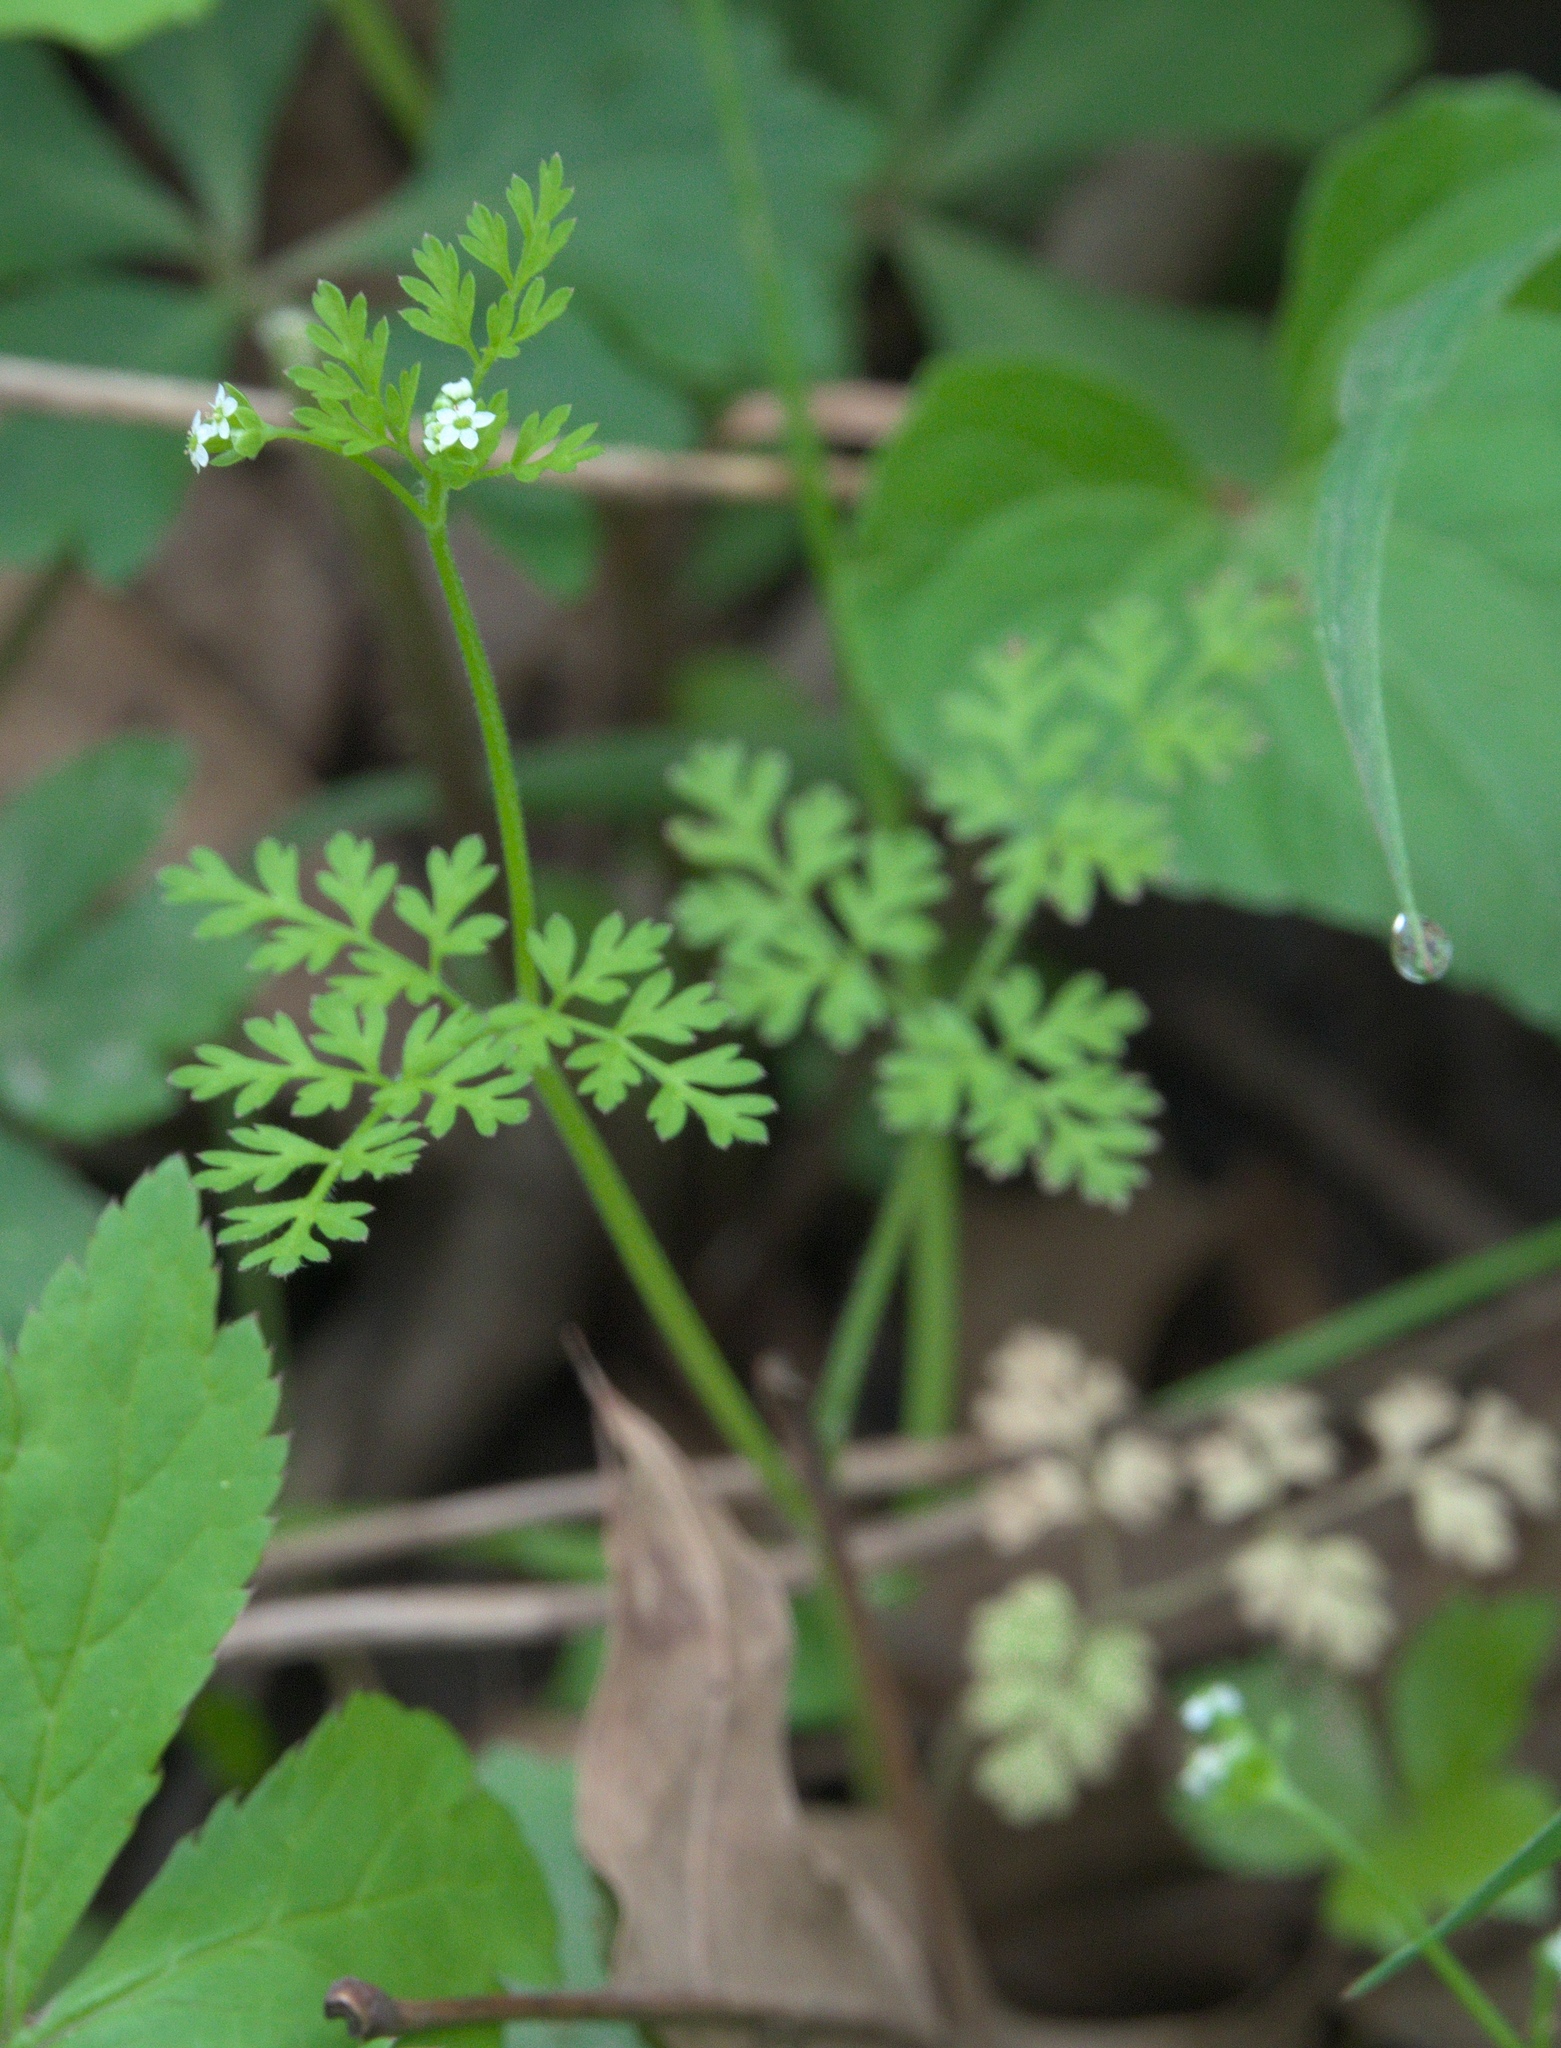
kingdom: Plantae
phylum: Tracheophyta
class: Magnoliopsida
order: Apiales
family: Apiaceae
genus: Chaerophyllum
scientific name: Chaerophyllum tainturieri
